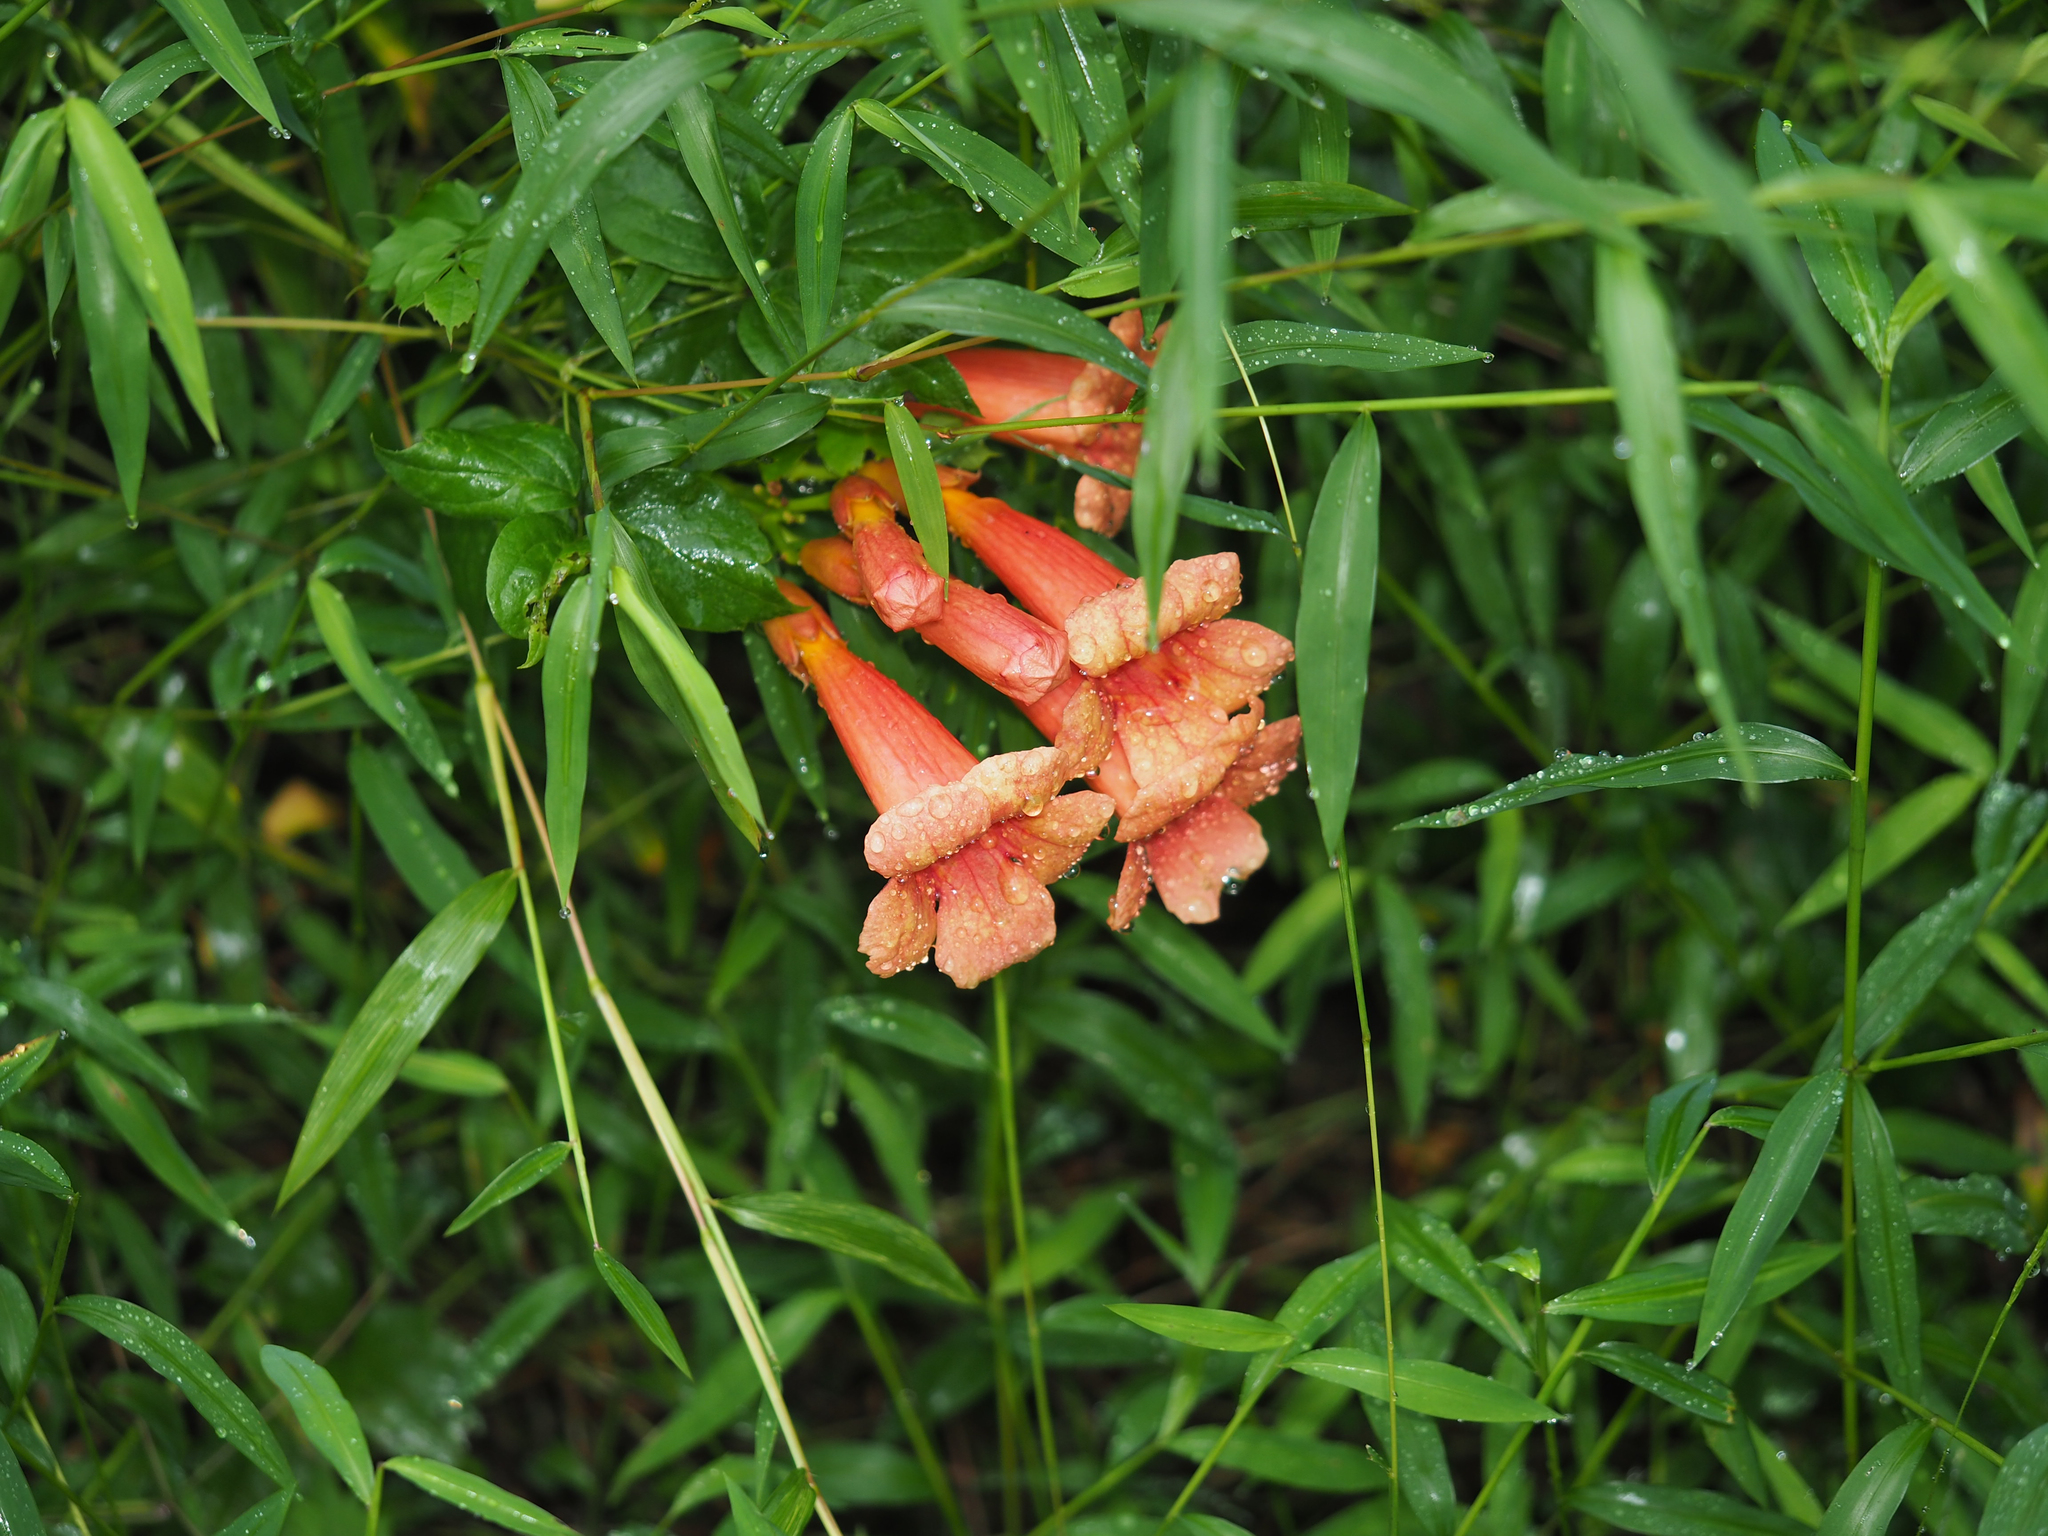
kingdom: Plantae
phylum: Tracheophyta
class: Magnoliopsida
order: Lamiales
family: Bignoniaceae
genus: Campsis
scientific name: Campsis radicans
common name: Trumpet-creeper
